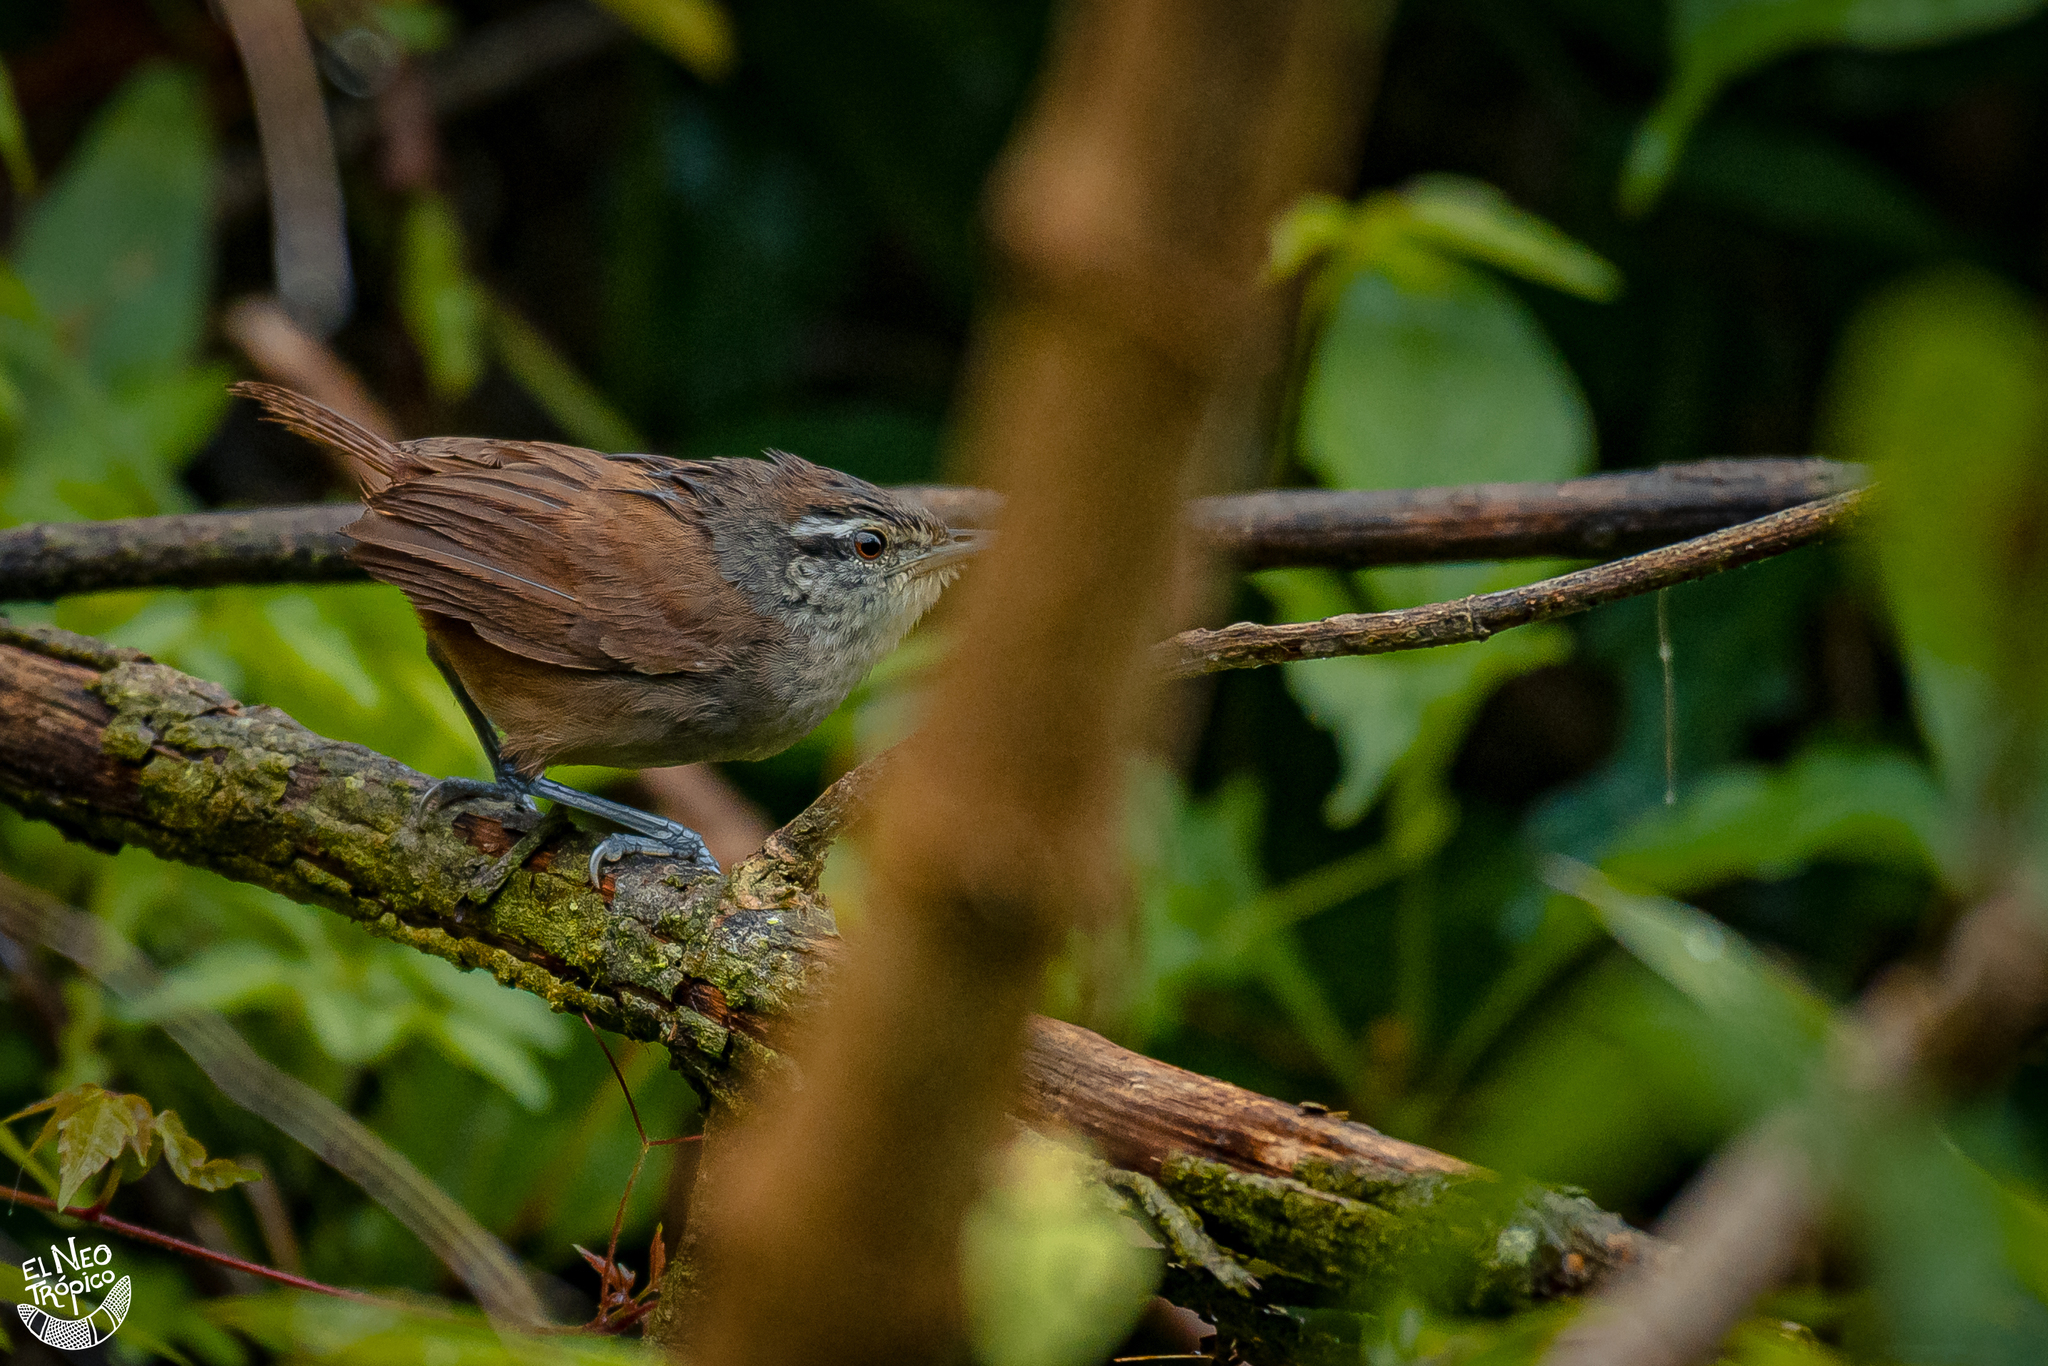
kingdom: Animalia
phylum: Chordata
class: Aves
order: Passeriformes
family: Troglodytidae
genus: Cantorchilus
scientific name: Cantorchilus modestus
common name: Cabanis's wren
